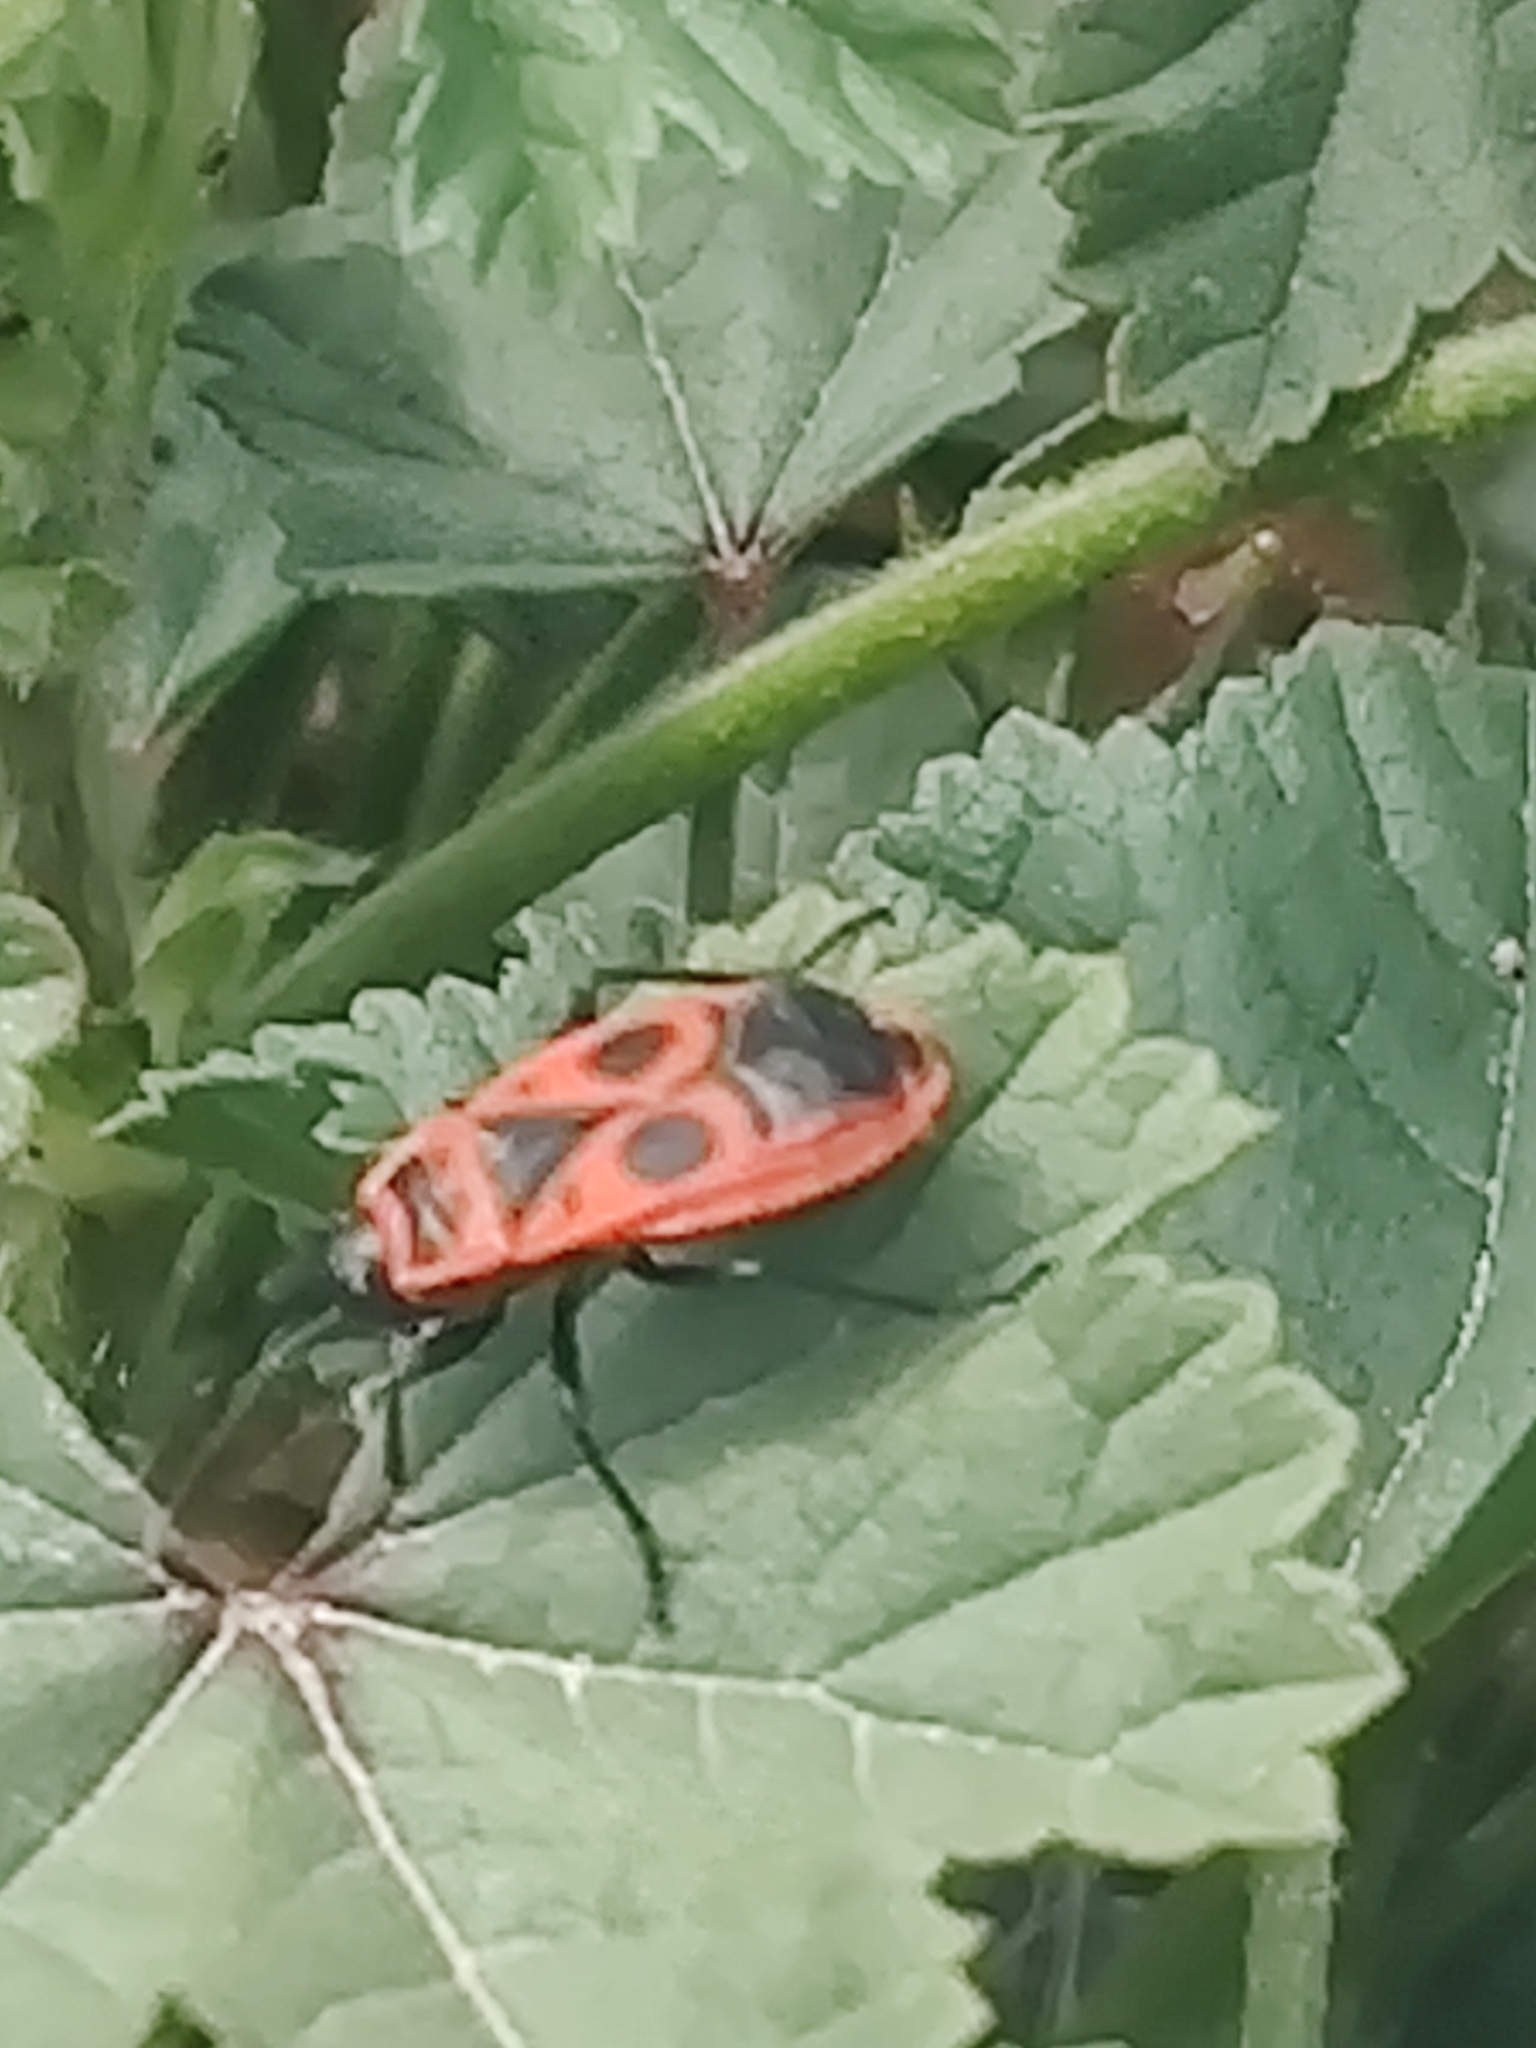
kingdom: Animalia
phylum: Arthropoda
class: Insecta
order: Hemiptera
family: Pyrrhocoridae
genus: Pyrrhocoris
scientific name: Pyrrhocoris apterus
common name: Firebug
